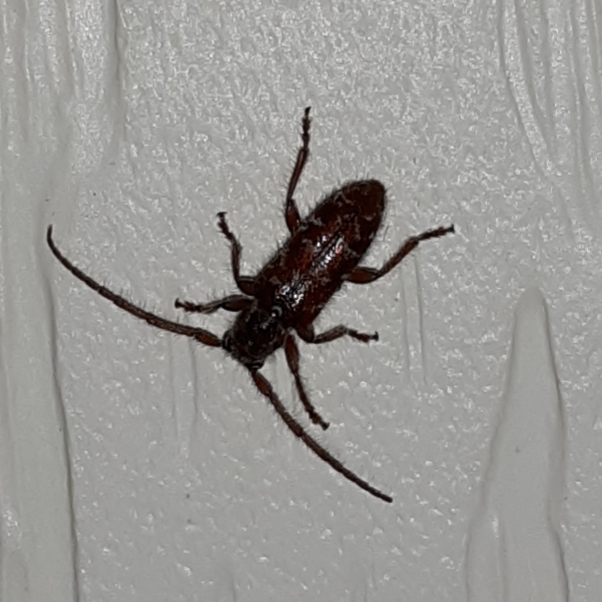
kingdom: Animalia
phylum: Arthropoda
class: Insecta
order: Coleoptera
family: Cerambycidae
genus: Eupogonius
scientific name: Eupogonius tomentosus
